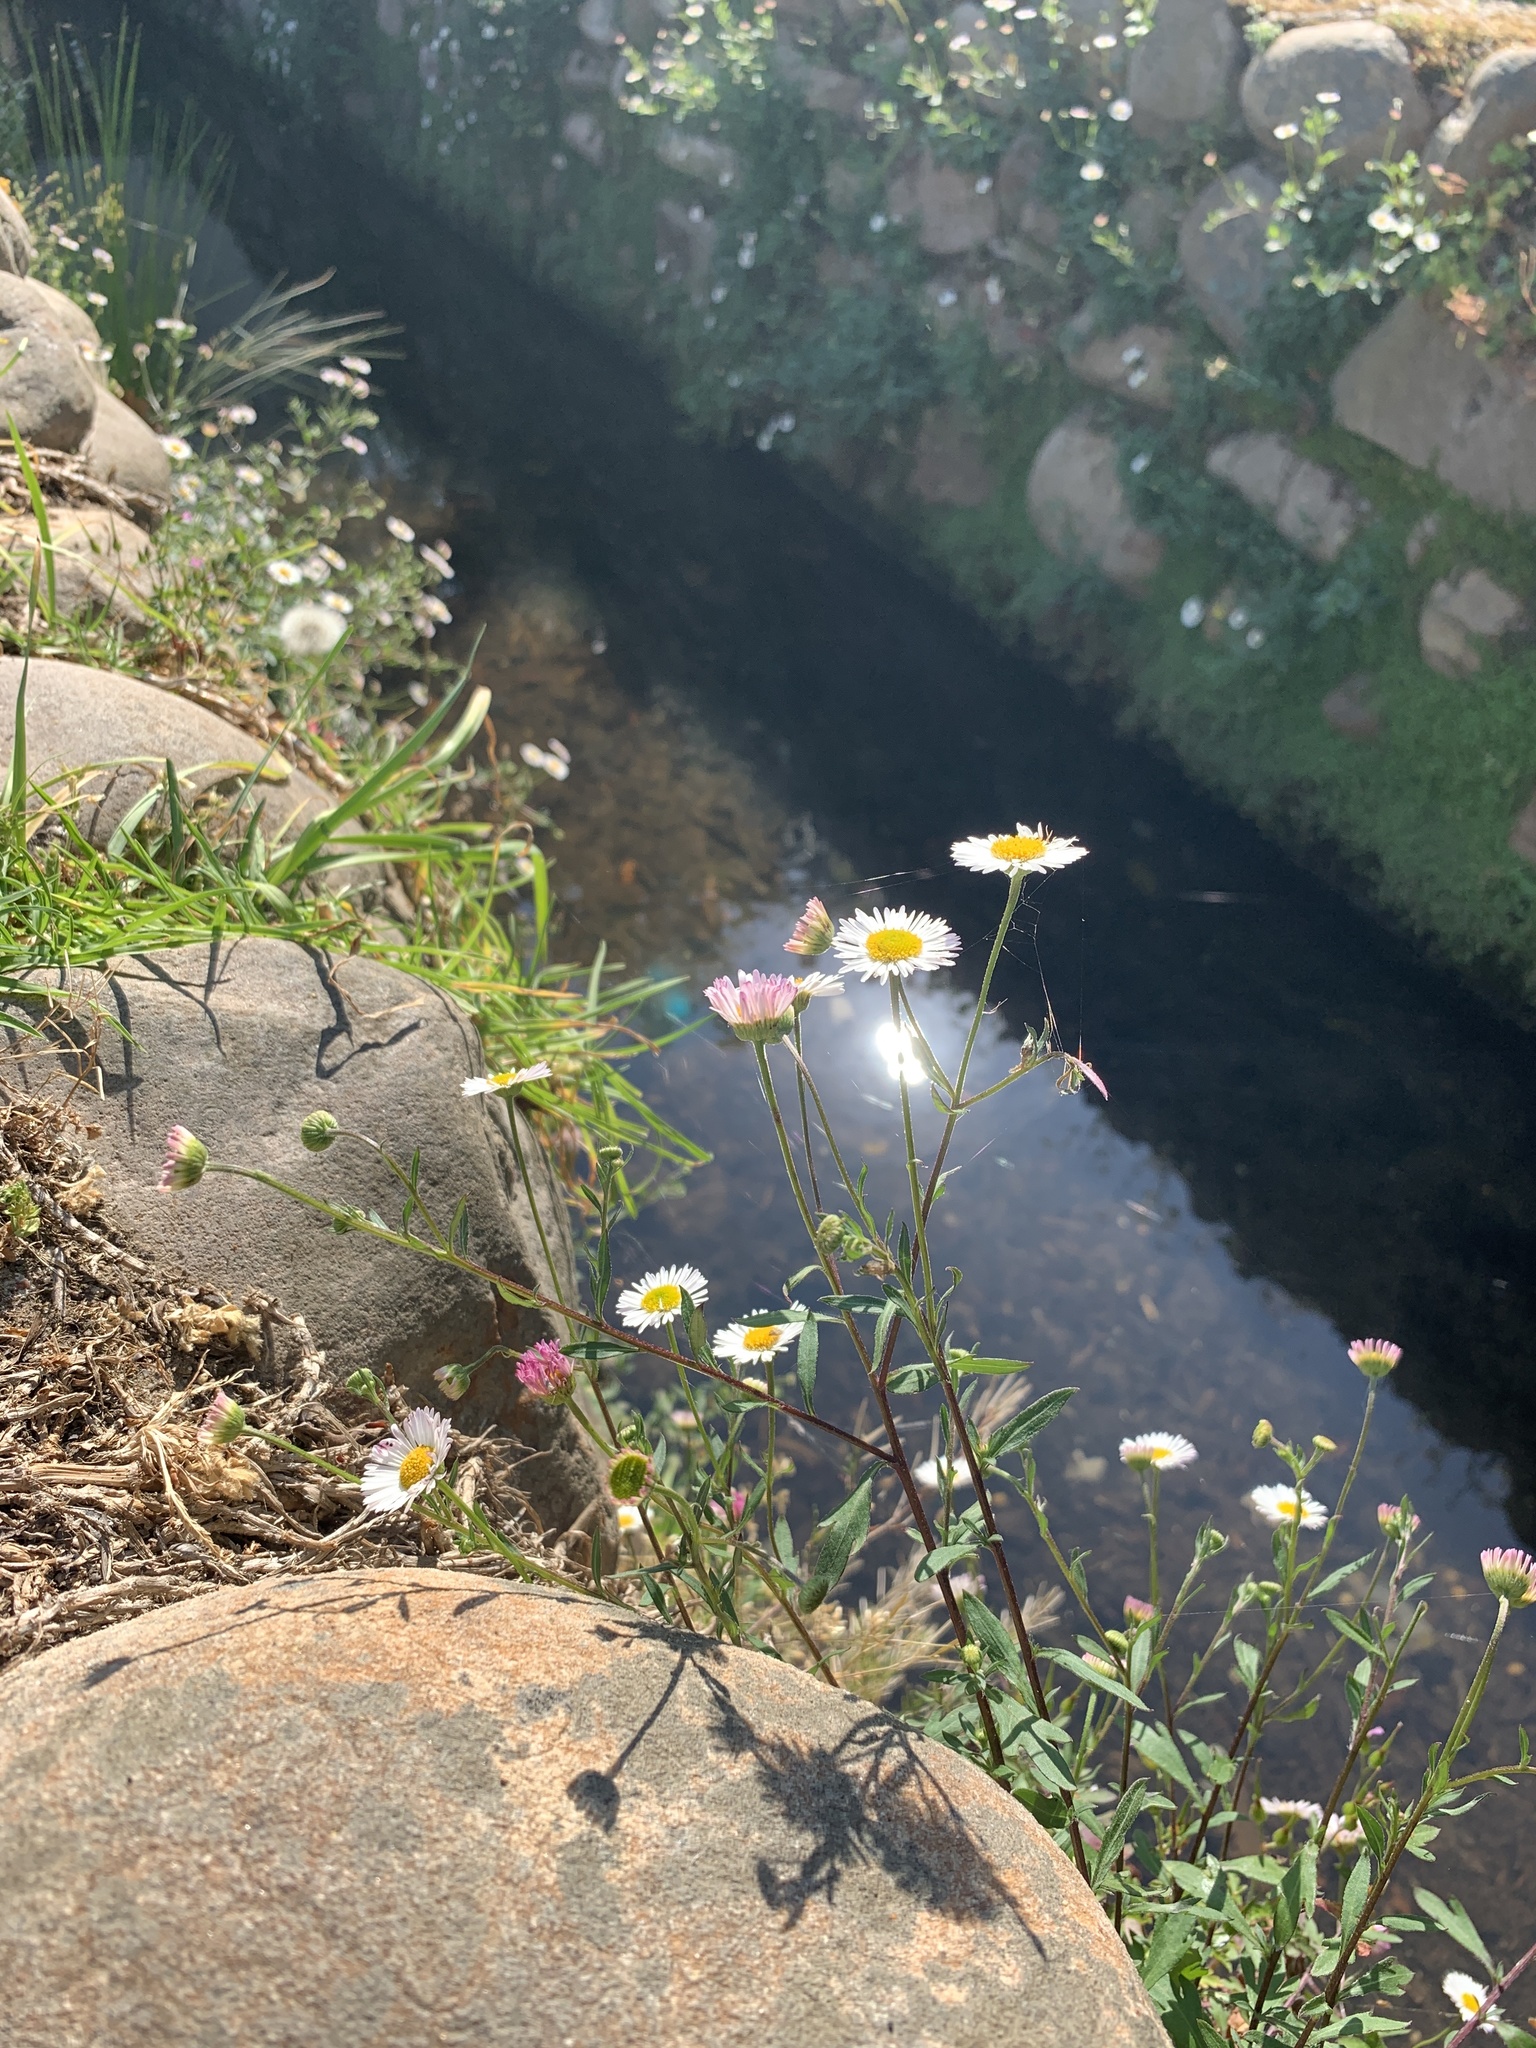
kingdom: Plantae
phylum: Tracheophyta
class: Magnoliopsida
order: Asterales
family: Asteraceae
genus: Erigeron
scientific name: Erigeron karvinskianus
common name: Mexican fleabane
